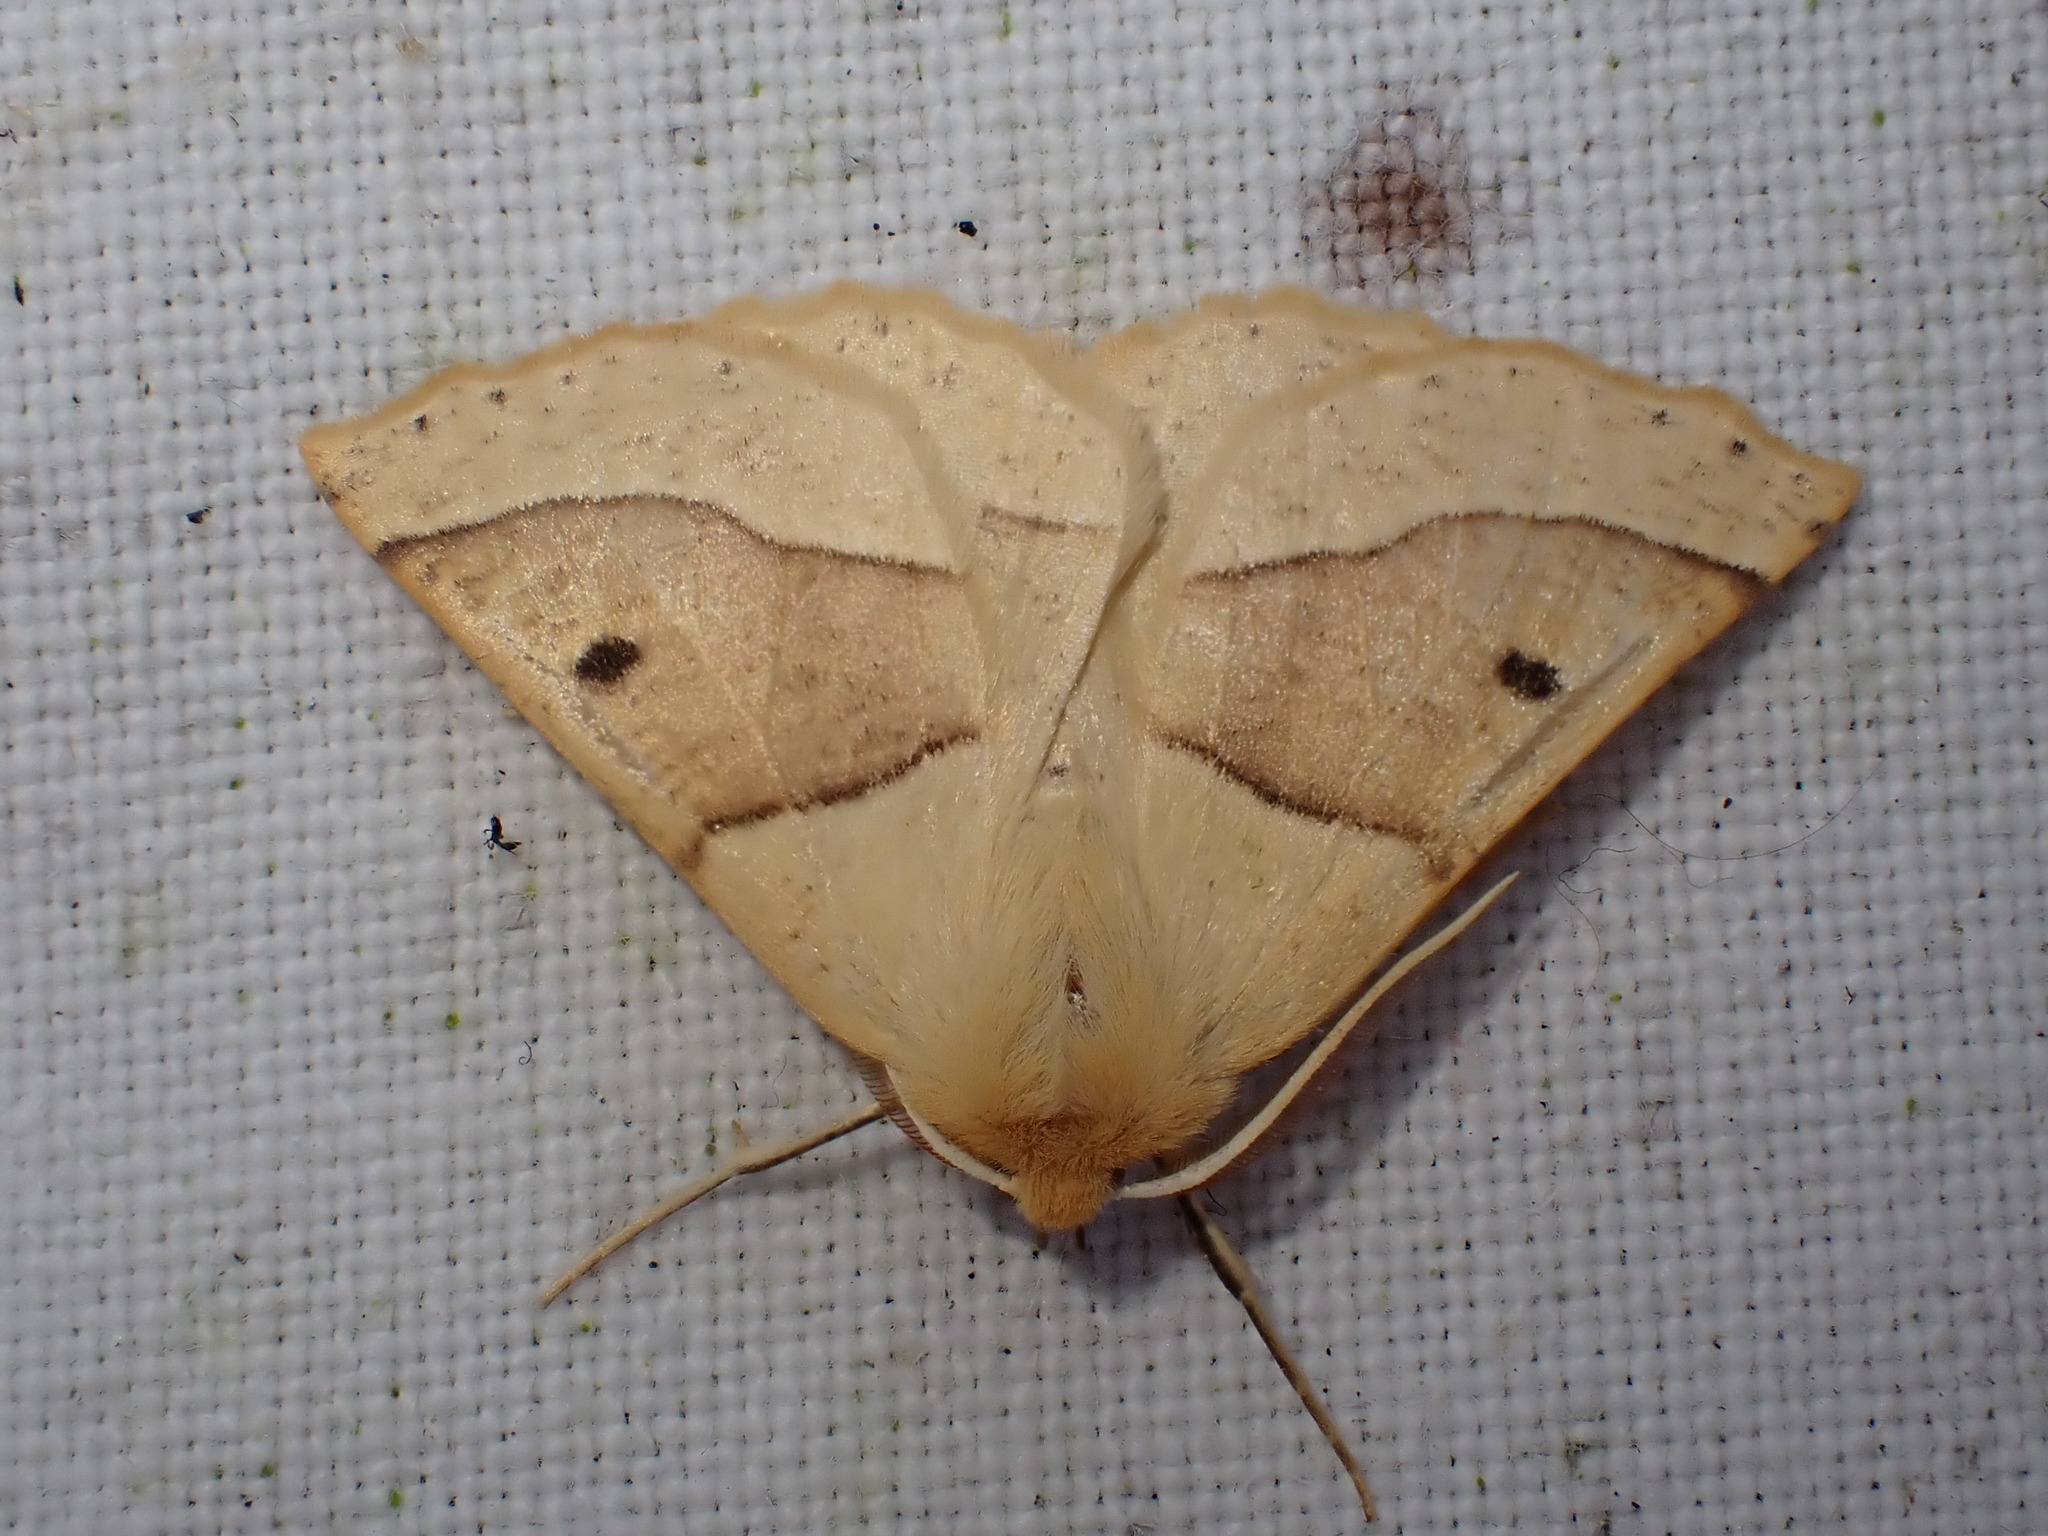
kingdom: Animalia
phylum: Arthropoda
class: Insecta
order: Lepidoptera
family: Geometridae
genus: Crocallis
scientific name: Crocallis elinguaria
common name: Scalloped oak
